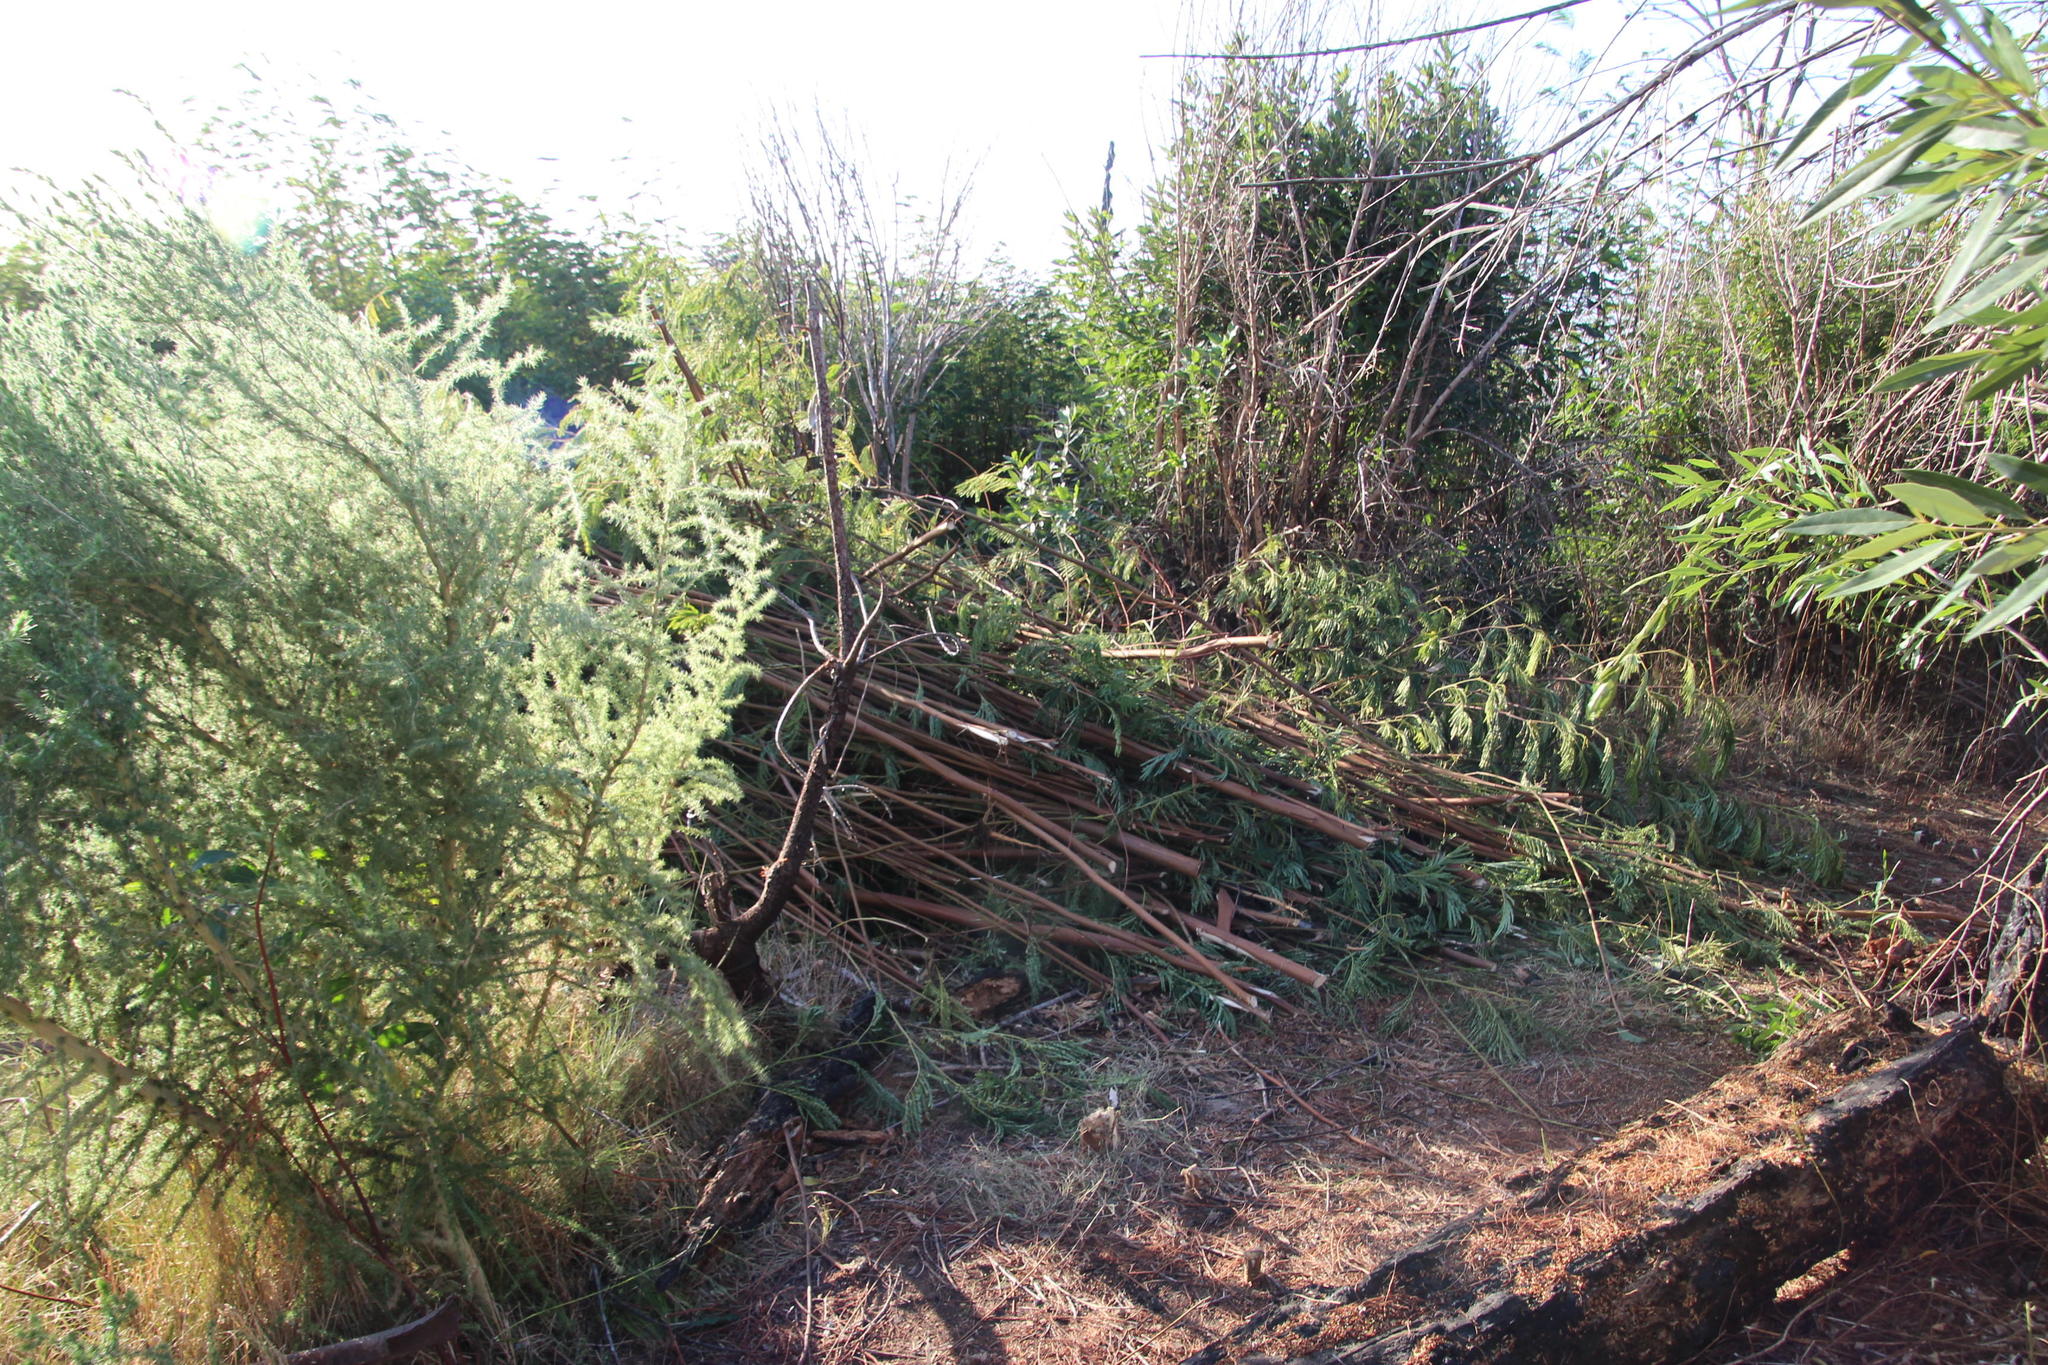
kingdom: Plantae
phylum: Tracheophyta
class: Magnoliopsida
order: Fabales
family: Fabaceae
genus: Paraserianthes
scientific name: Paraserianthes lophantha
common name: Plume albizia
